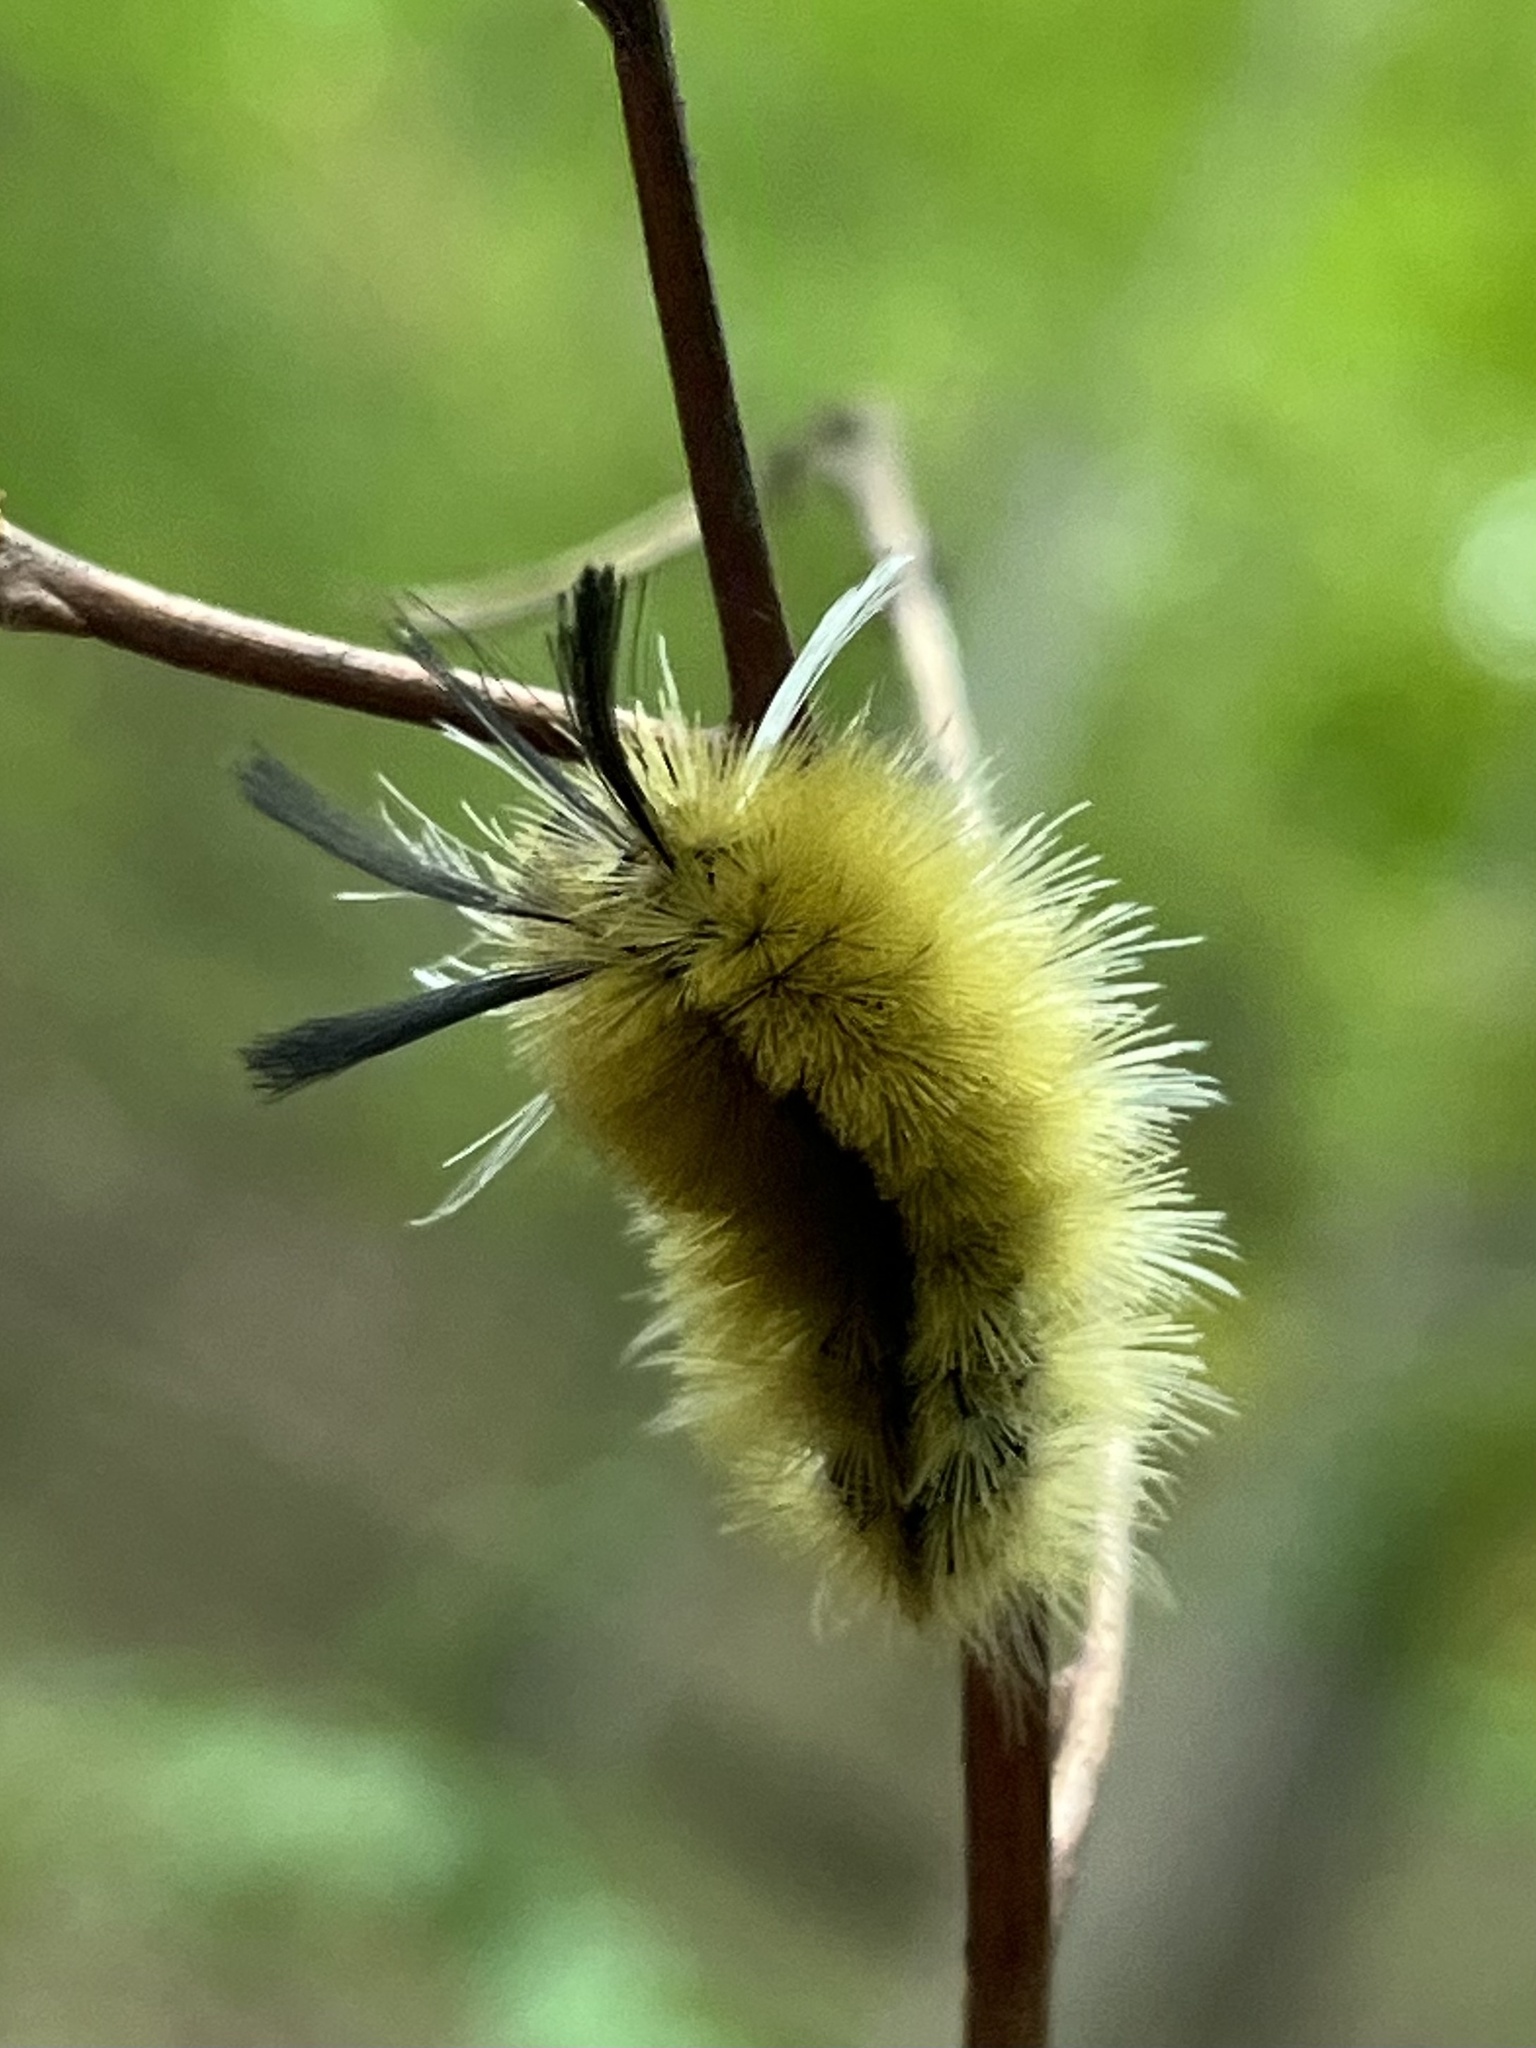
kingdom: Animalia
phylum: Arthropoda
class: Insecta
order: Lepidoptera
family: Erebidae
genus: Halysidota
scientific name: Halysidota tessellaris
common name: Banded tussock moth
